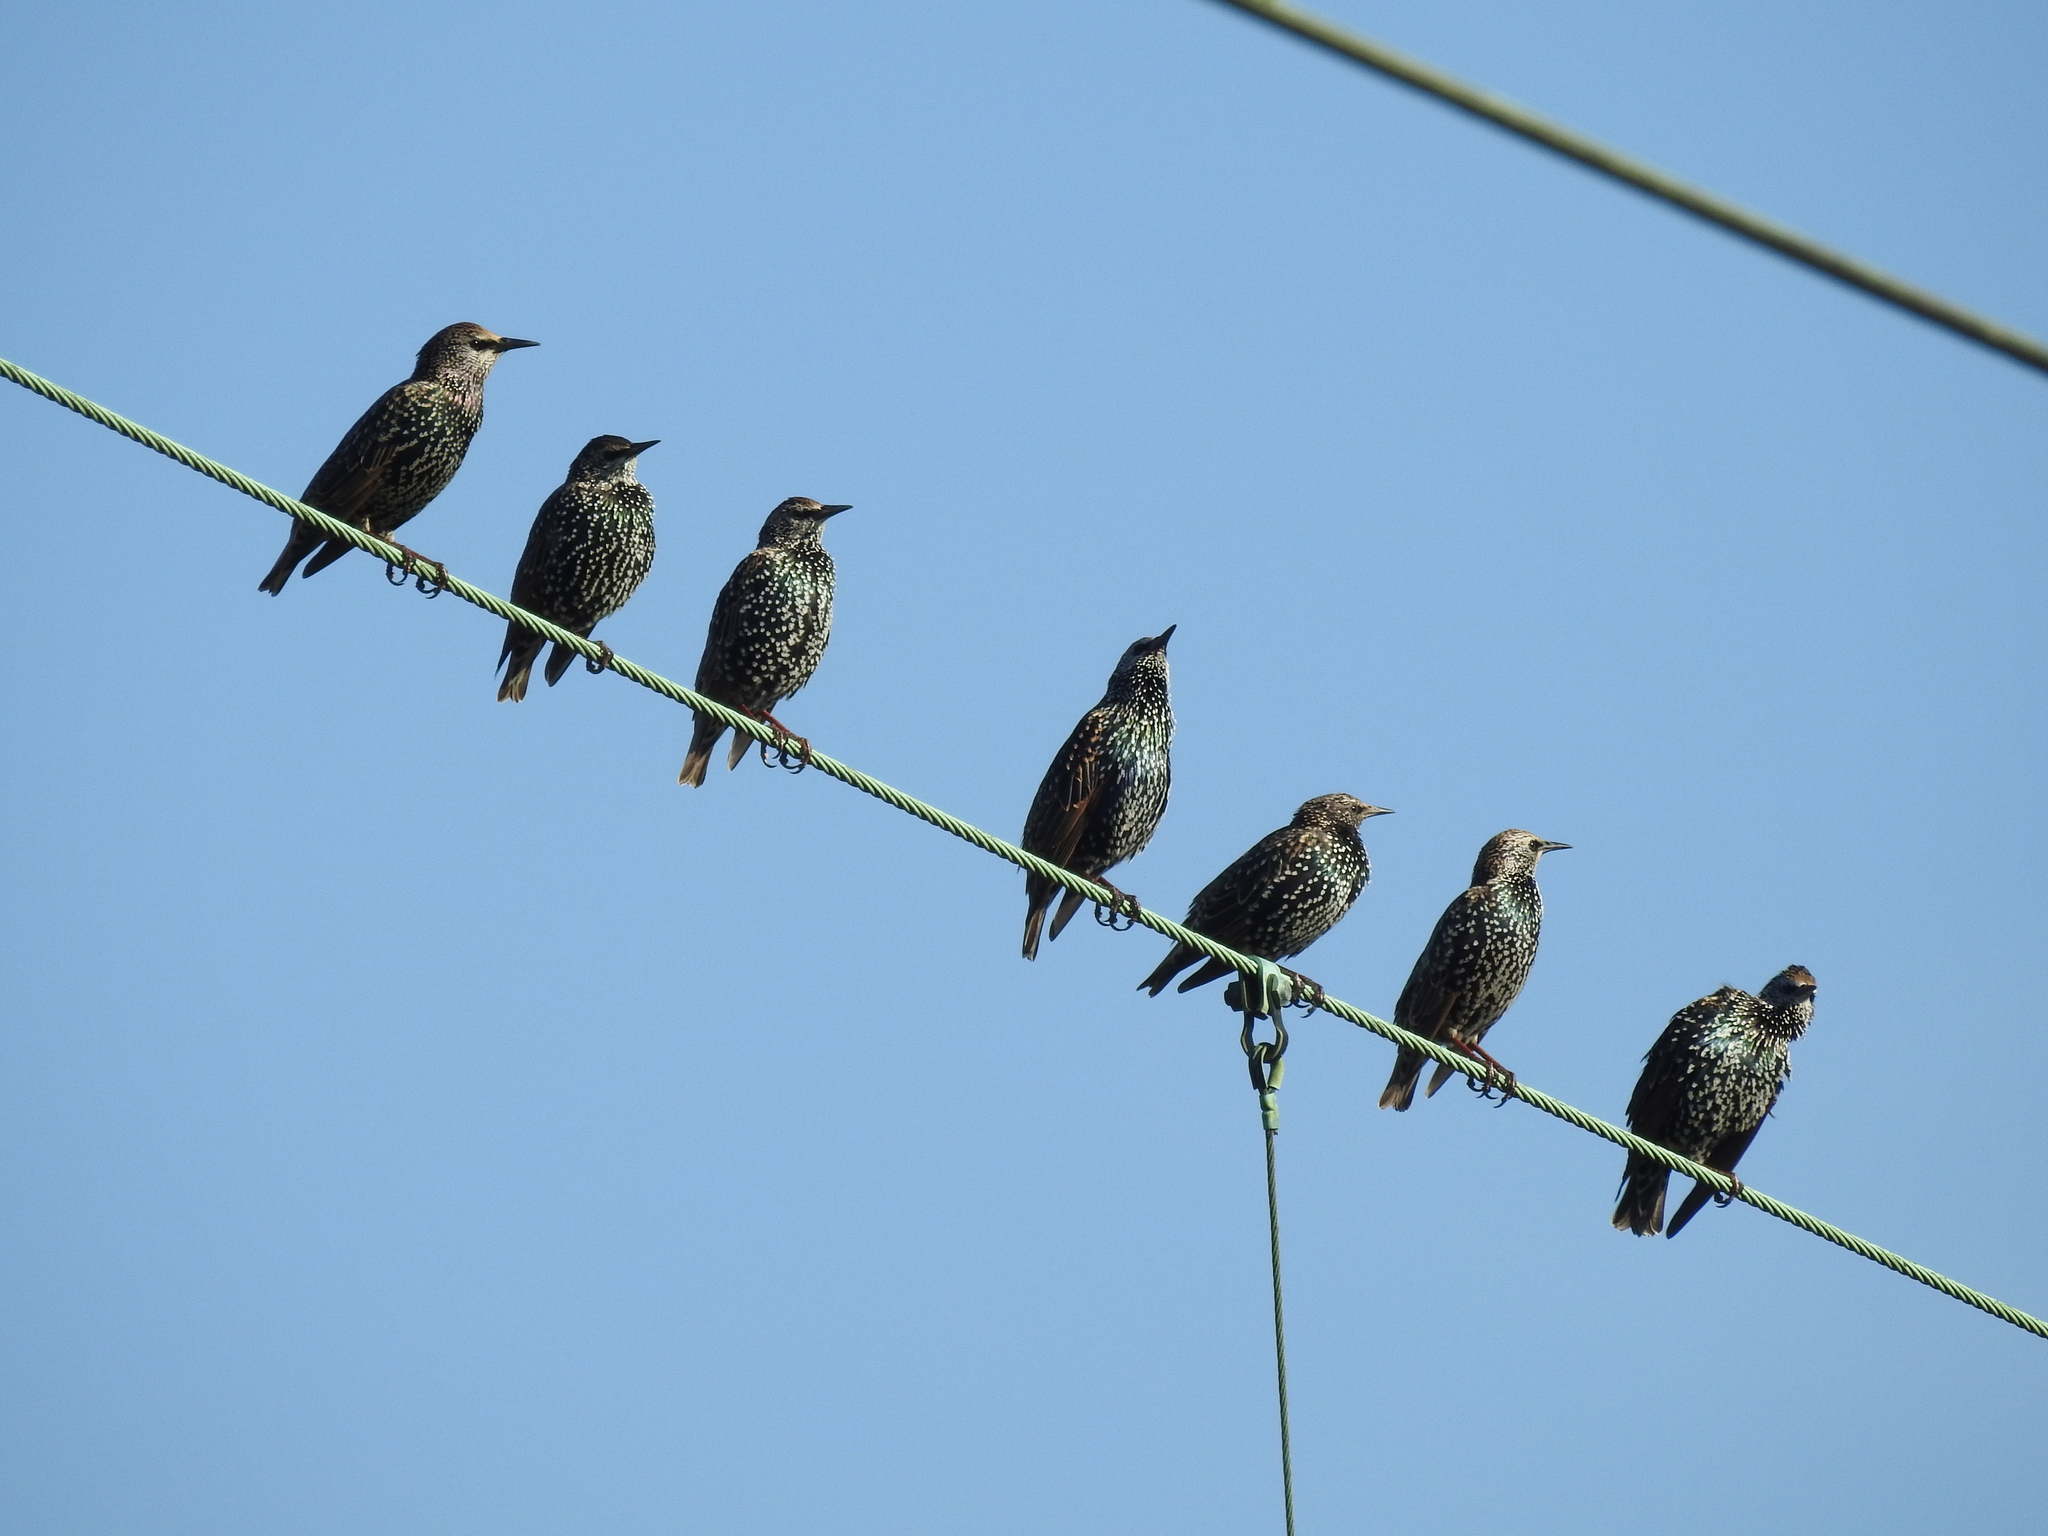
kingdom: Animalia
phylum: Chordata
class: Aves
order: Passeriformes
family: Sturnidae
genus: Sturnus
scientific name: Sturnus vulgaris
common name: Common starling
